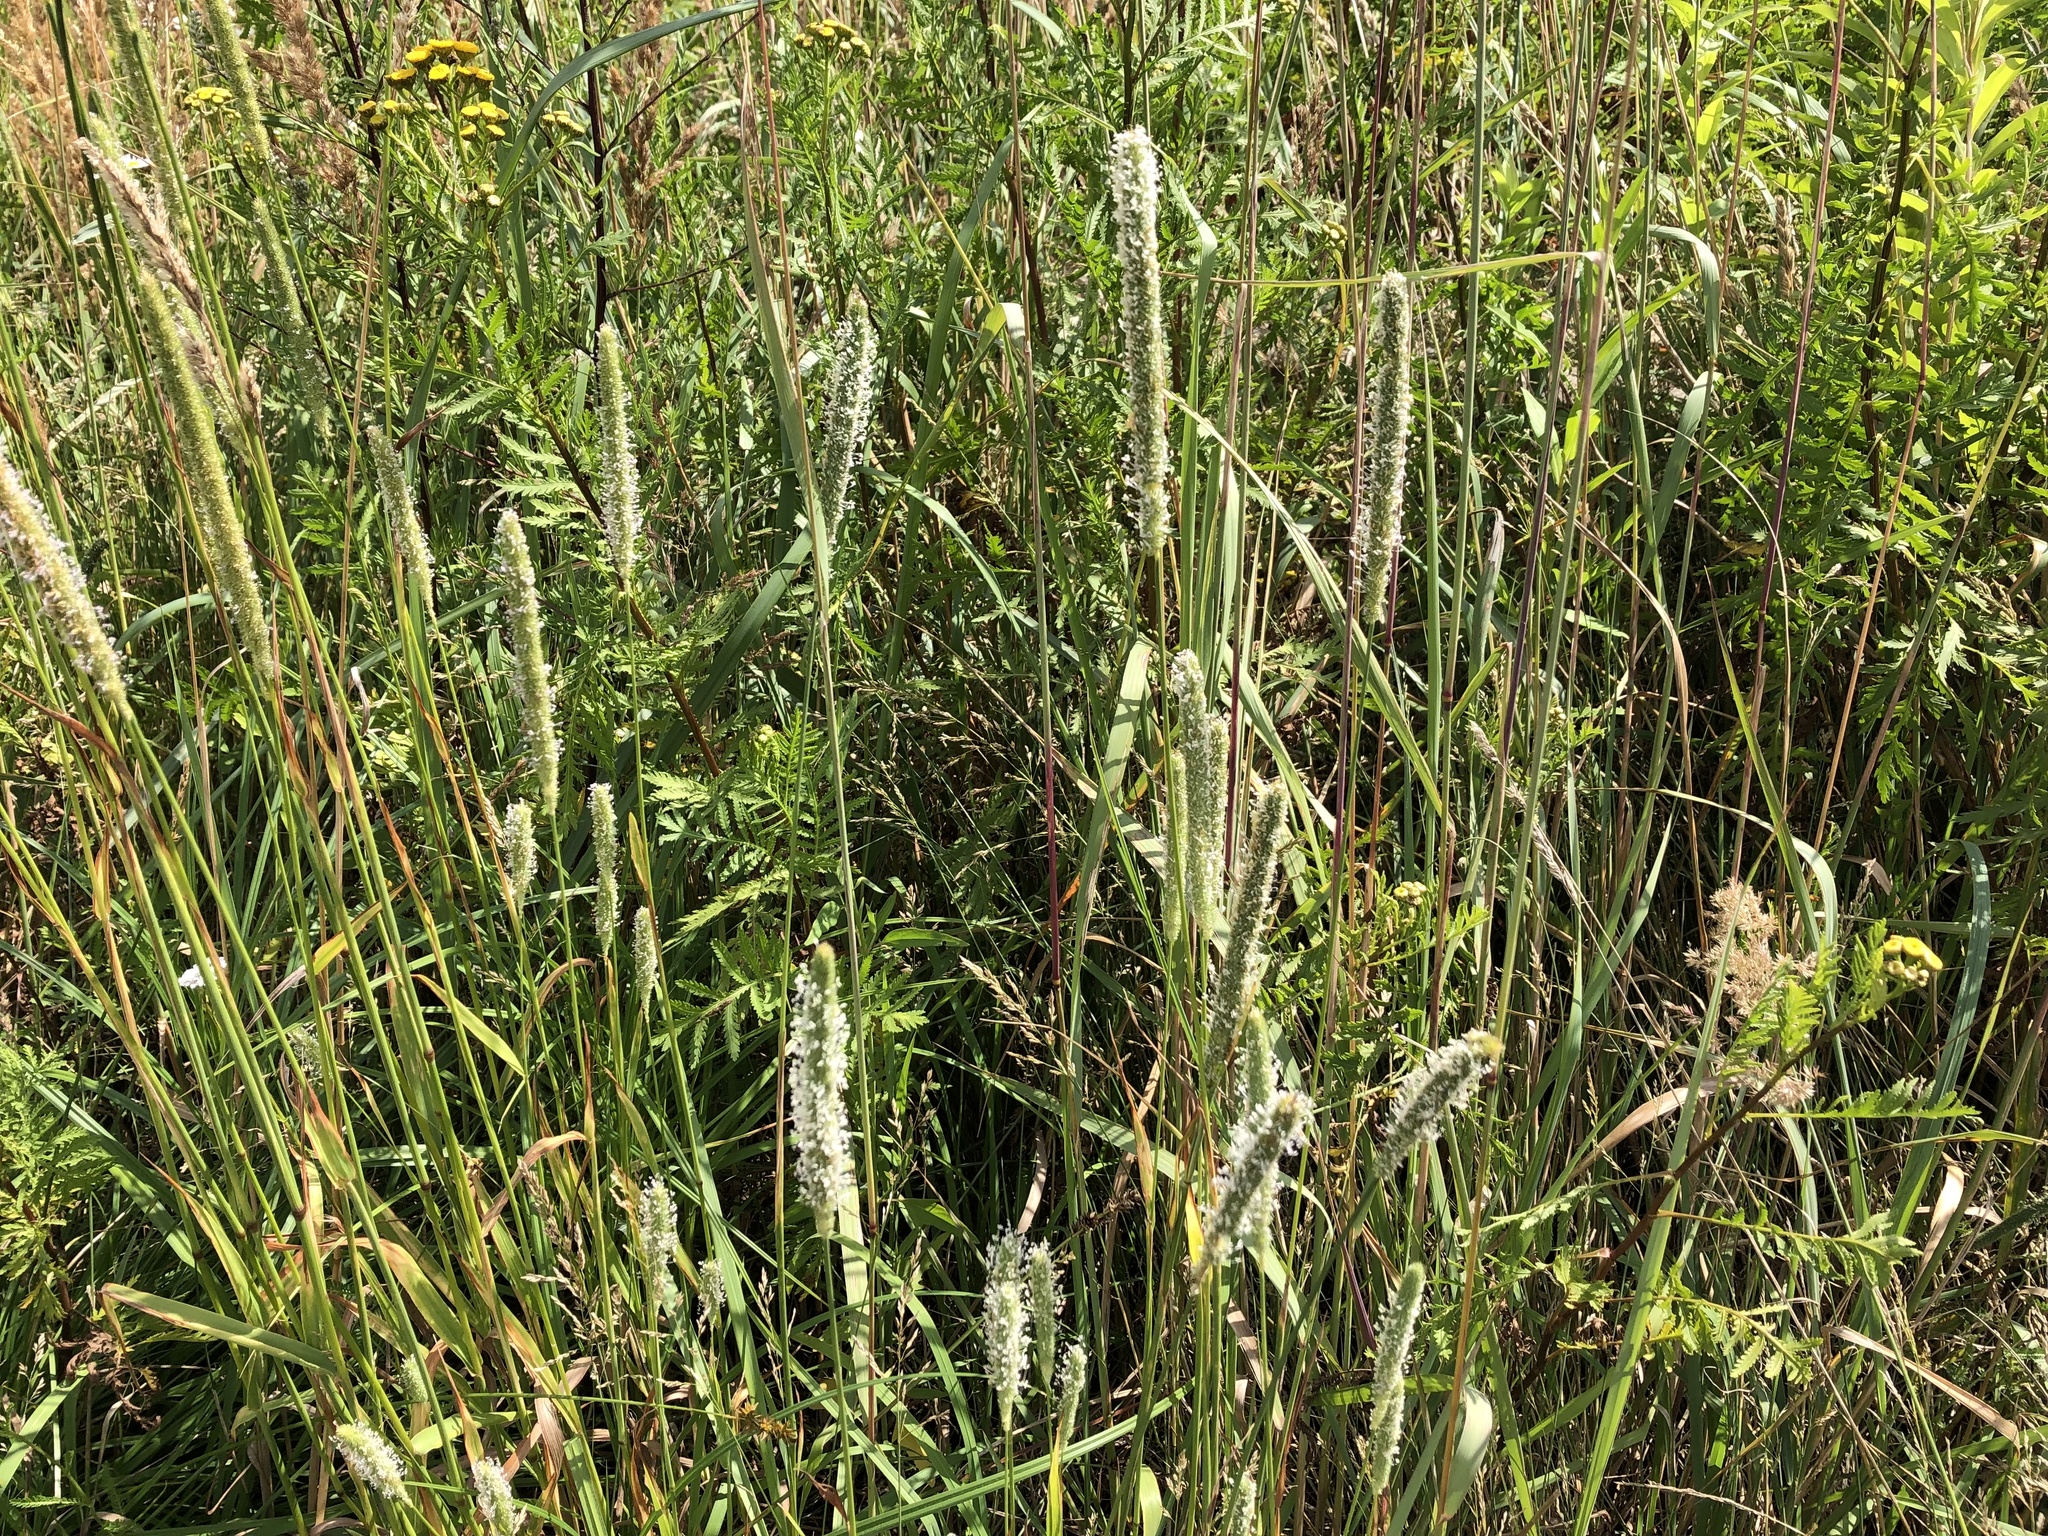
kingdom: Plantae
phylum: Tracheophyta
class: Liliopsida
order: Poales
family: Poaceae
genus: Phleum
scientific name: Phleum pratense
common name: Timothy grass
